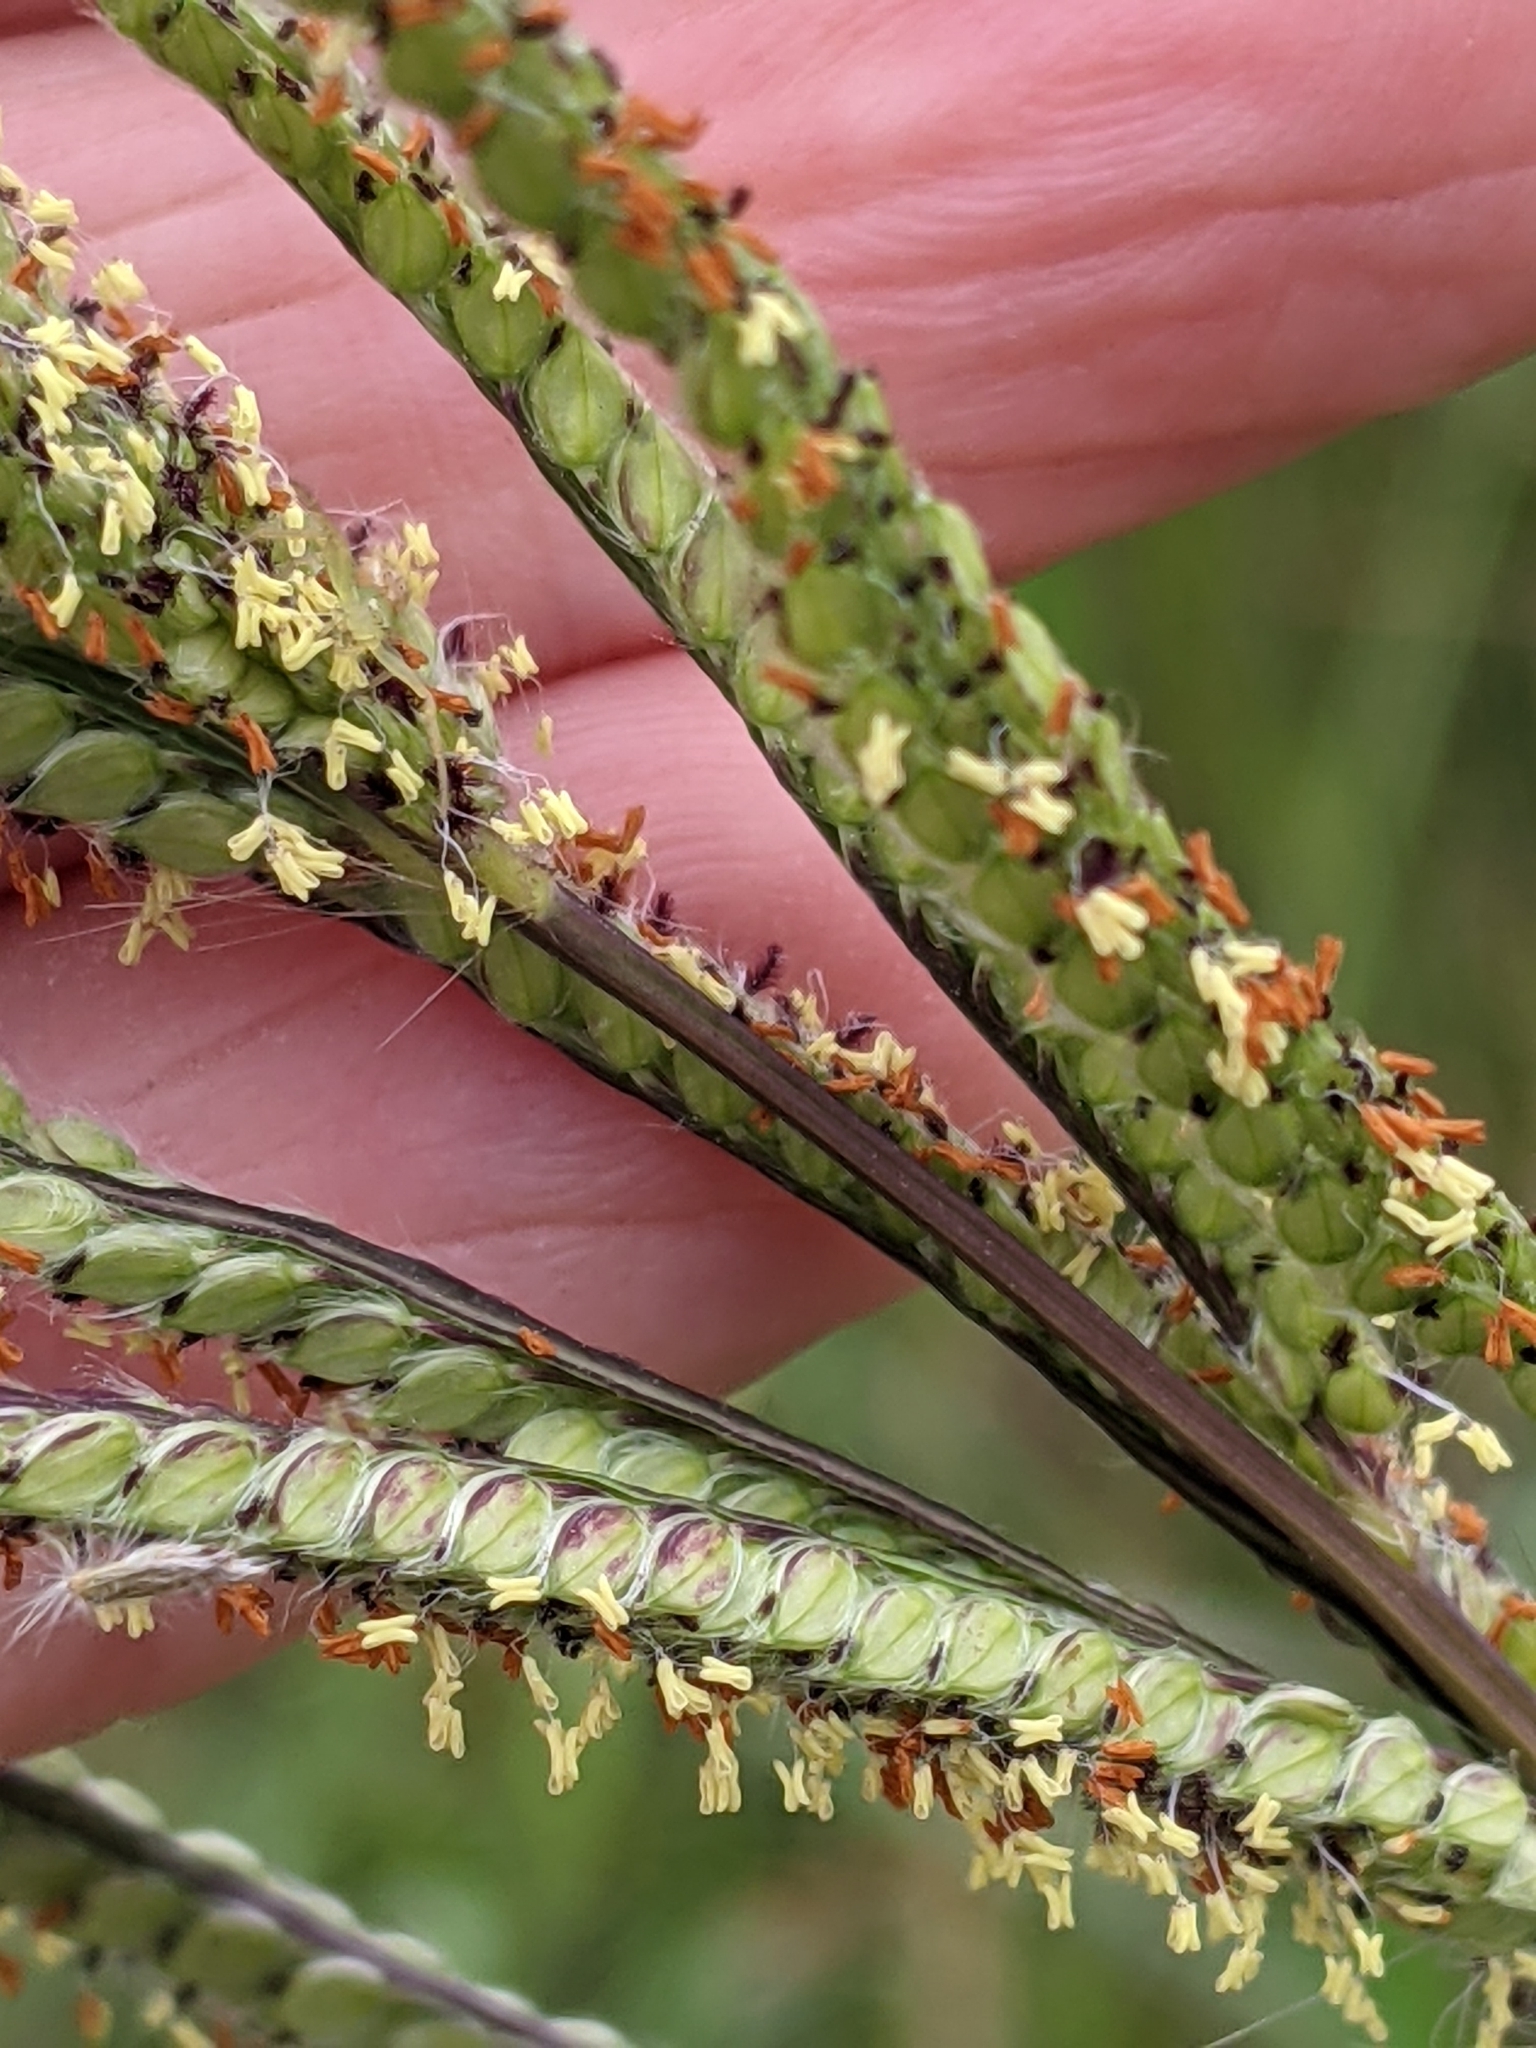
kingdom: Plantae
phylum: Tracheophyta
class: Liliopsida
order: Poales
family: Poaceae
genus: Paspalum
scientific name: Paspalum urvillei
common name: Vasey's grass
